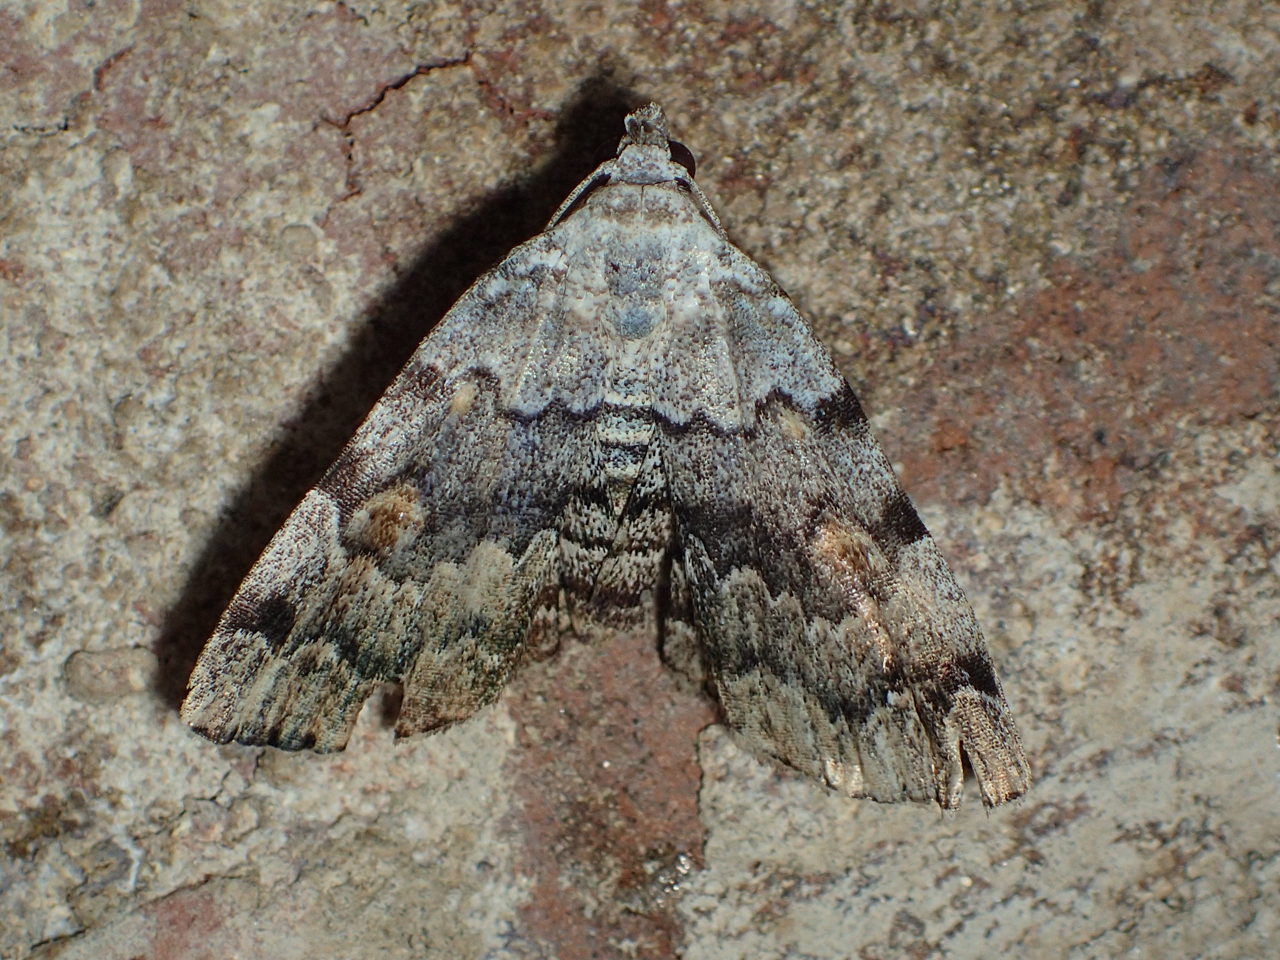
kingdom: Animalia
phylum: Arthropoda
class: Insecta
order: Lepidoptera
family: Erebidae
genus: Idia
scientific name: Idia americalis
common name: American idia moth
